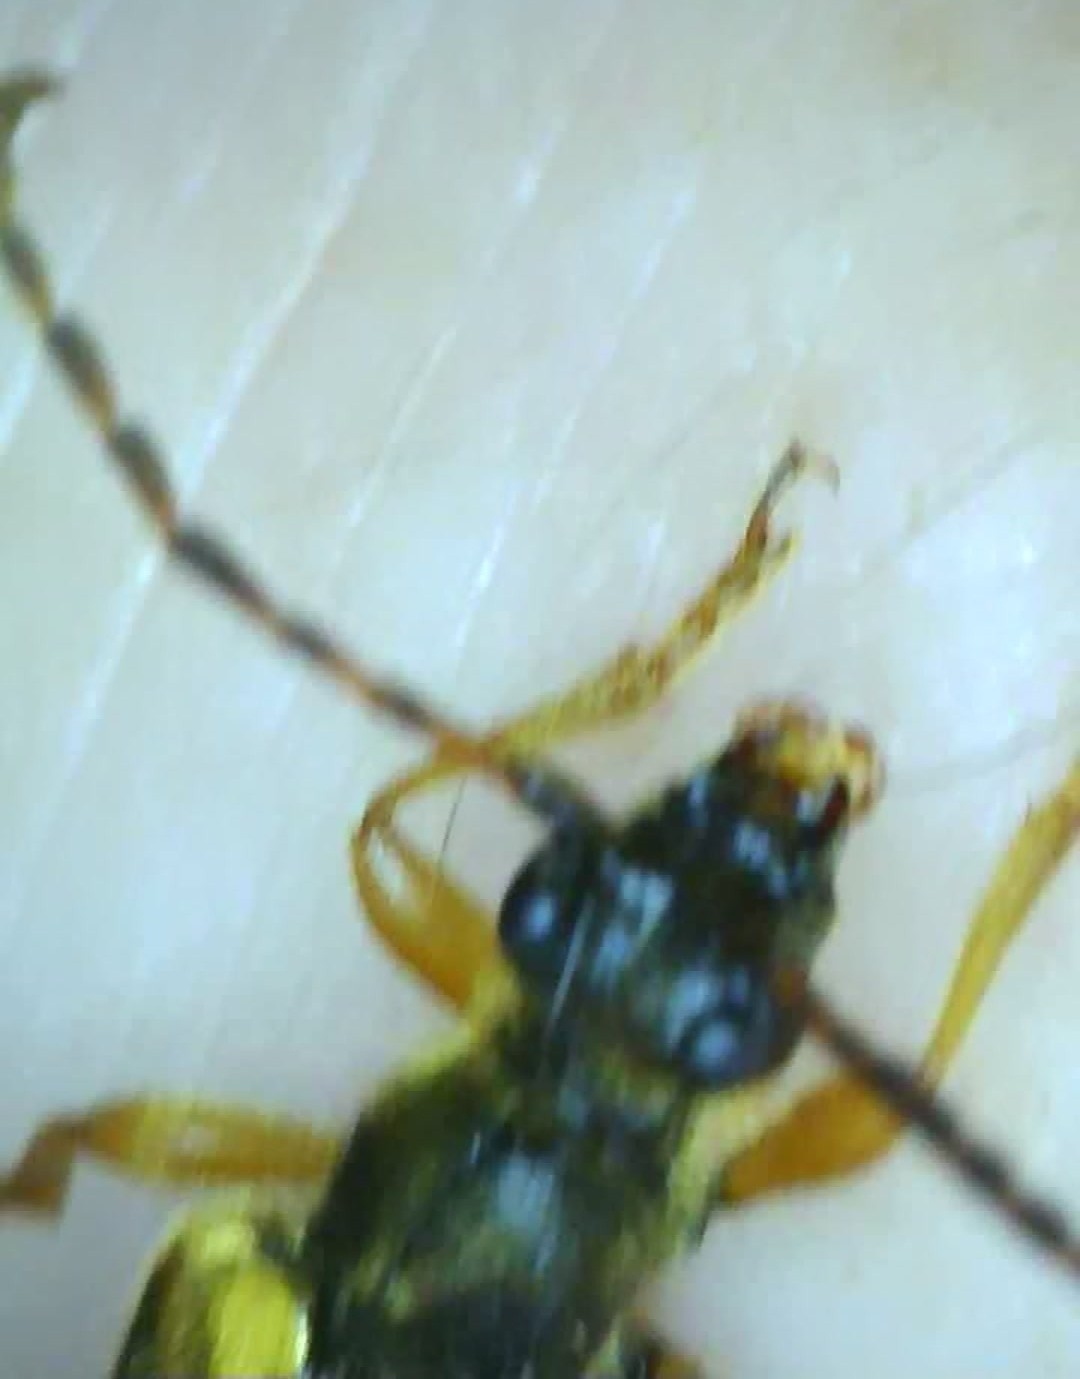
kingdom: Animalia
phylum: Arthropoda
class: Insecta
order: Coleoptera
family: Cerambycidae
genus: Xestoleptura
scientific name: Xestoleptura crassipes
